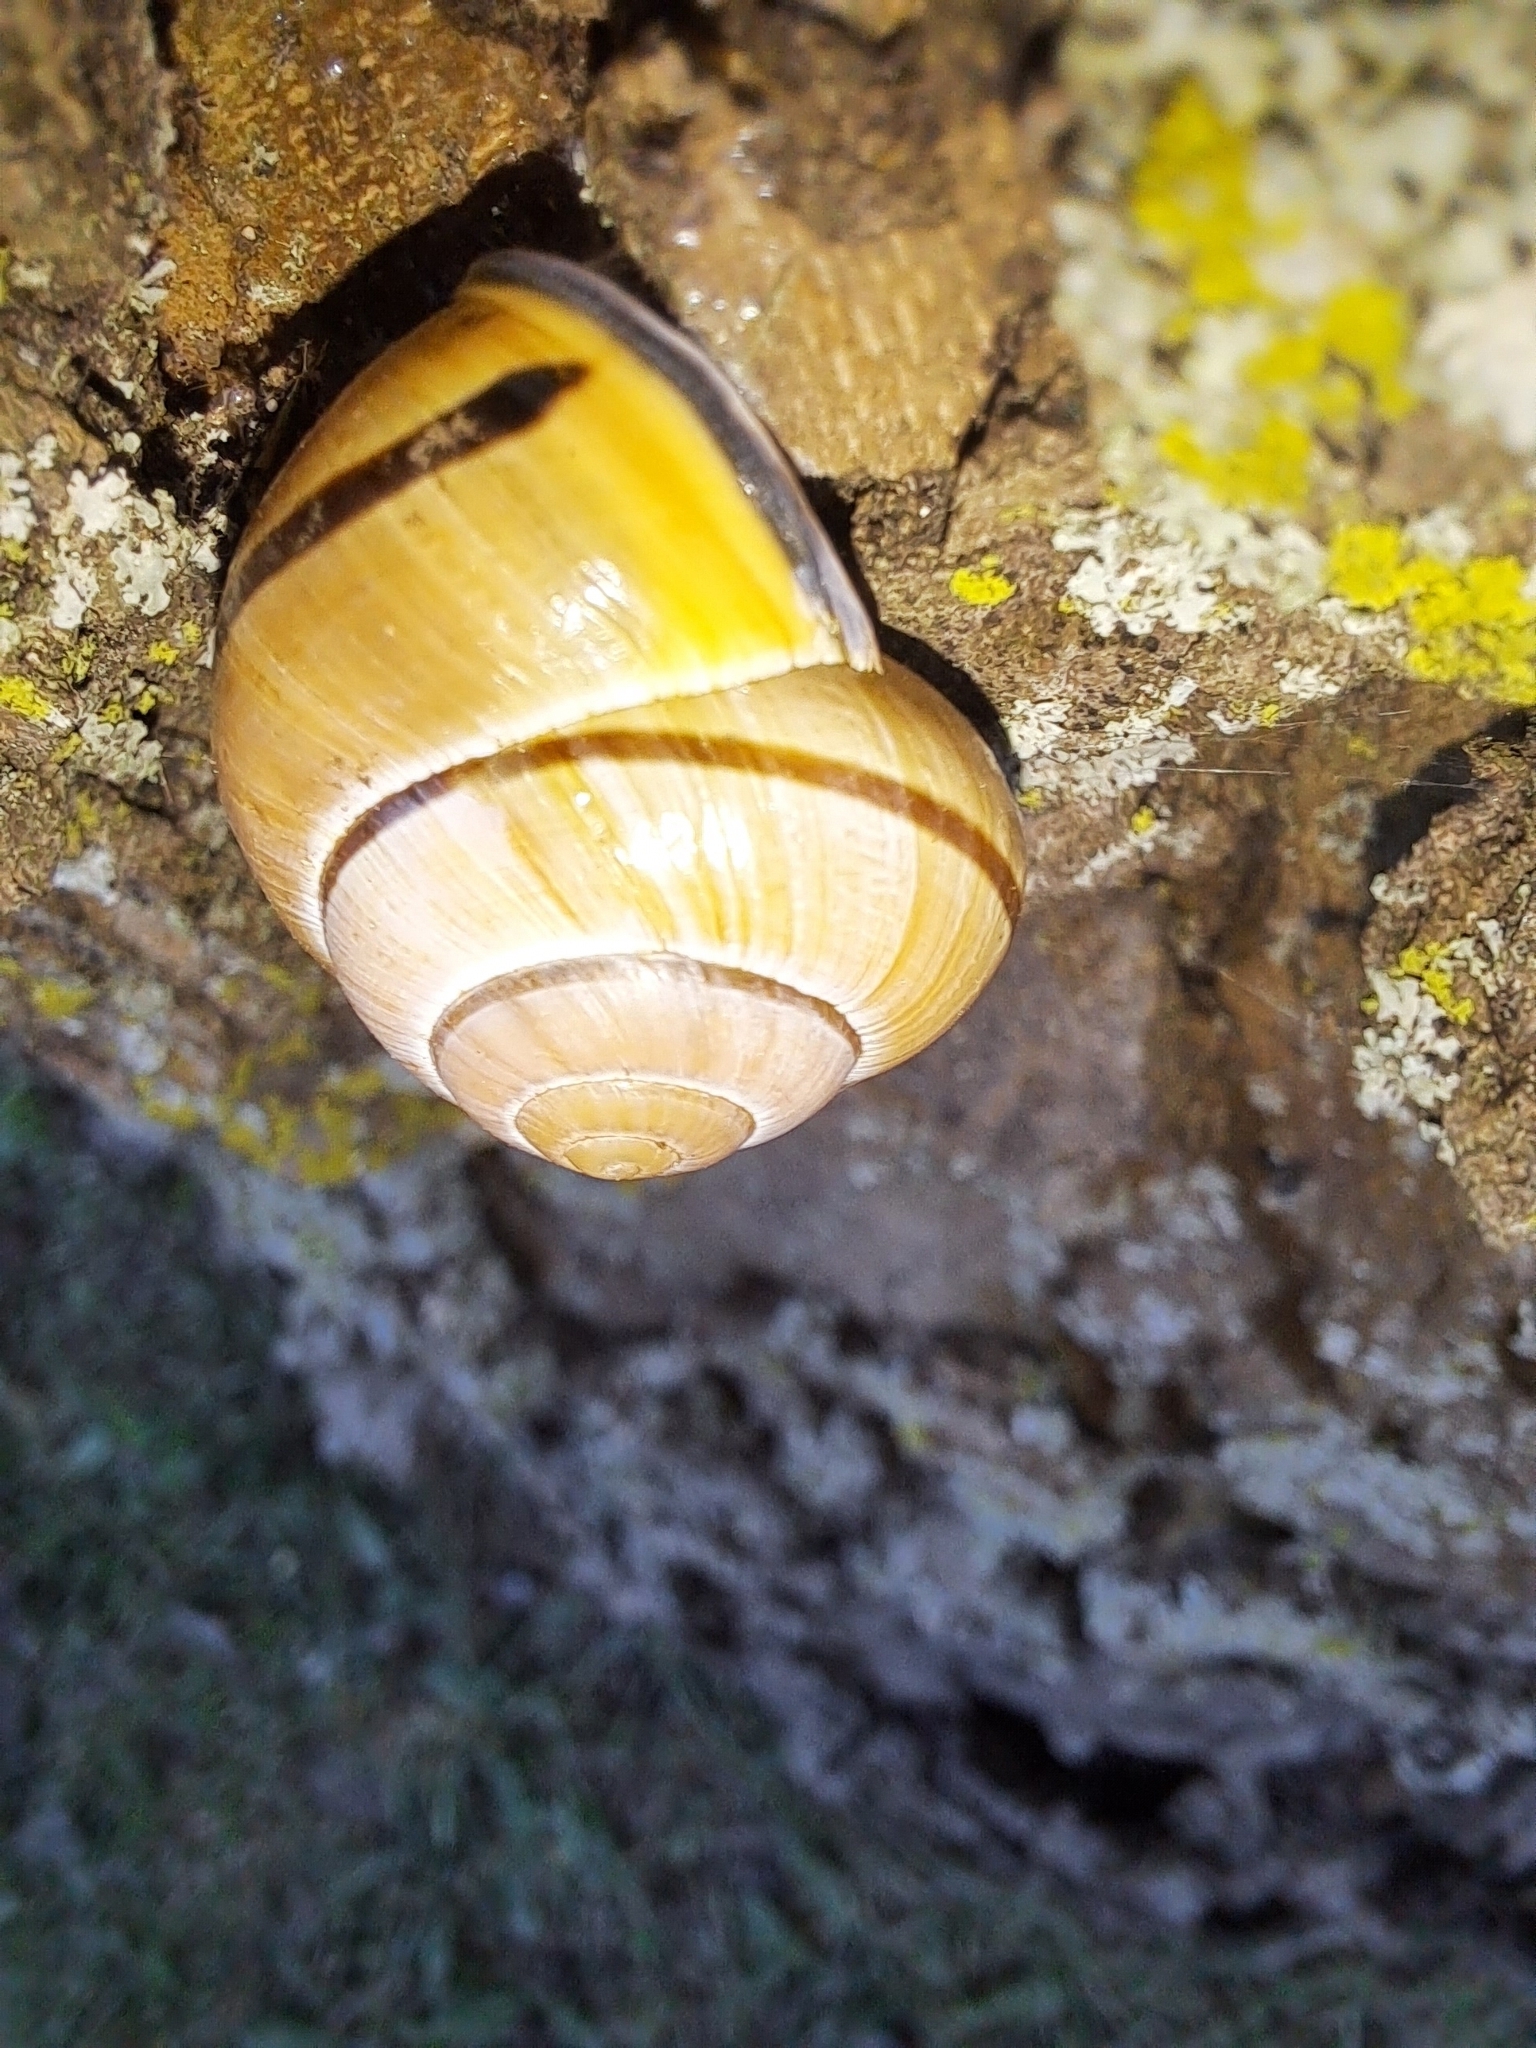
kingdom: Animalia
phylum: Mollusca
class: Gastropoda
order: Stylommatophora
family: Helicidae
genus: Cepaea
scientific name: Cepaea nemoralis
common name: Grovesnail
